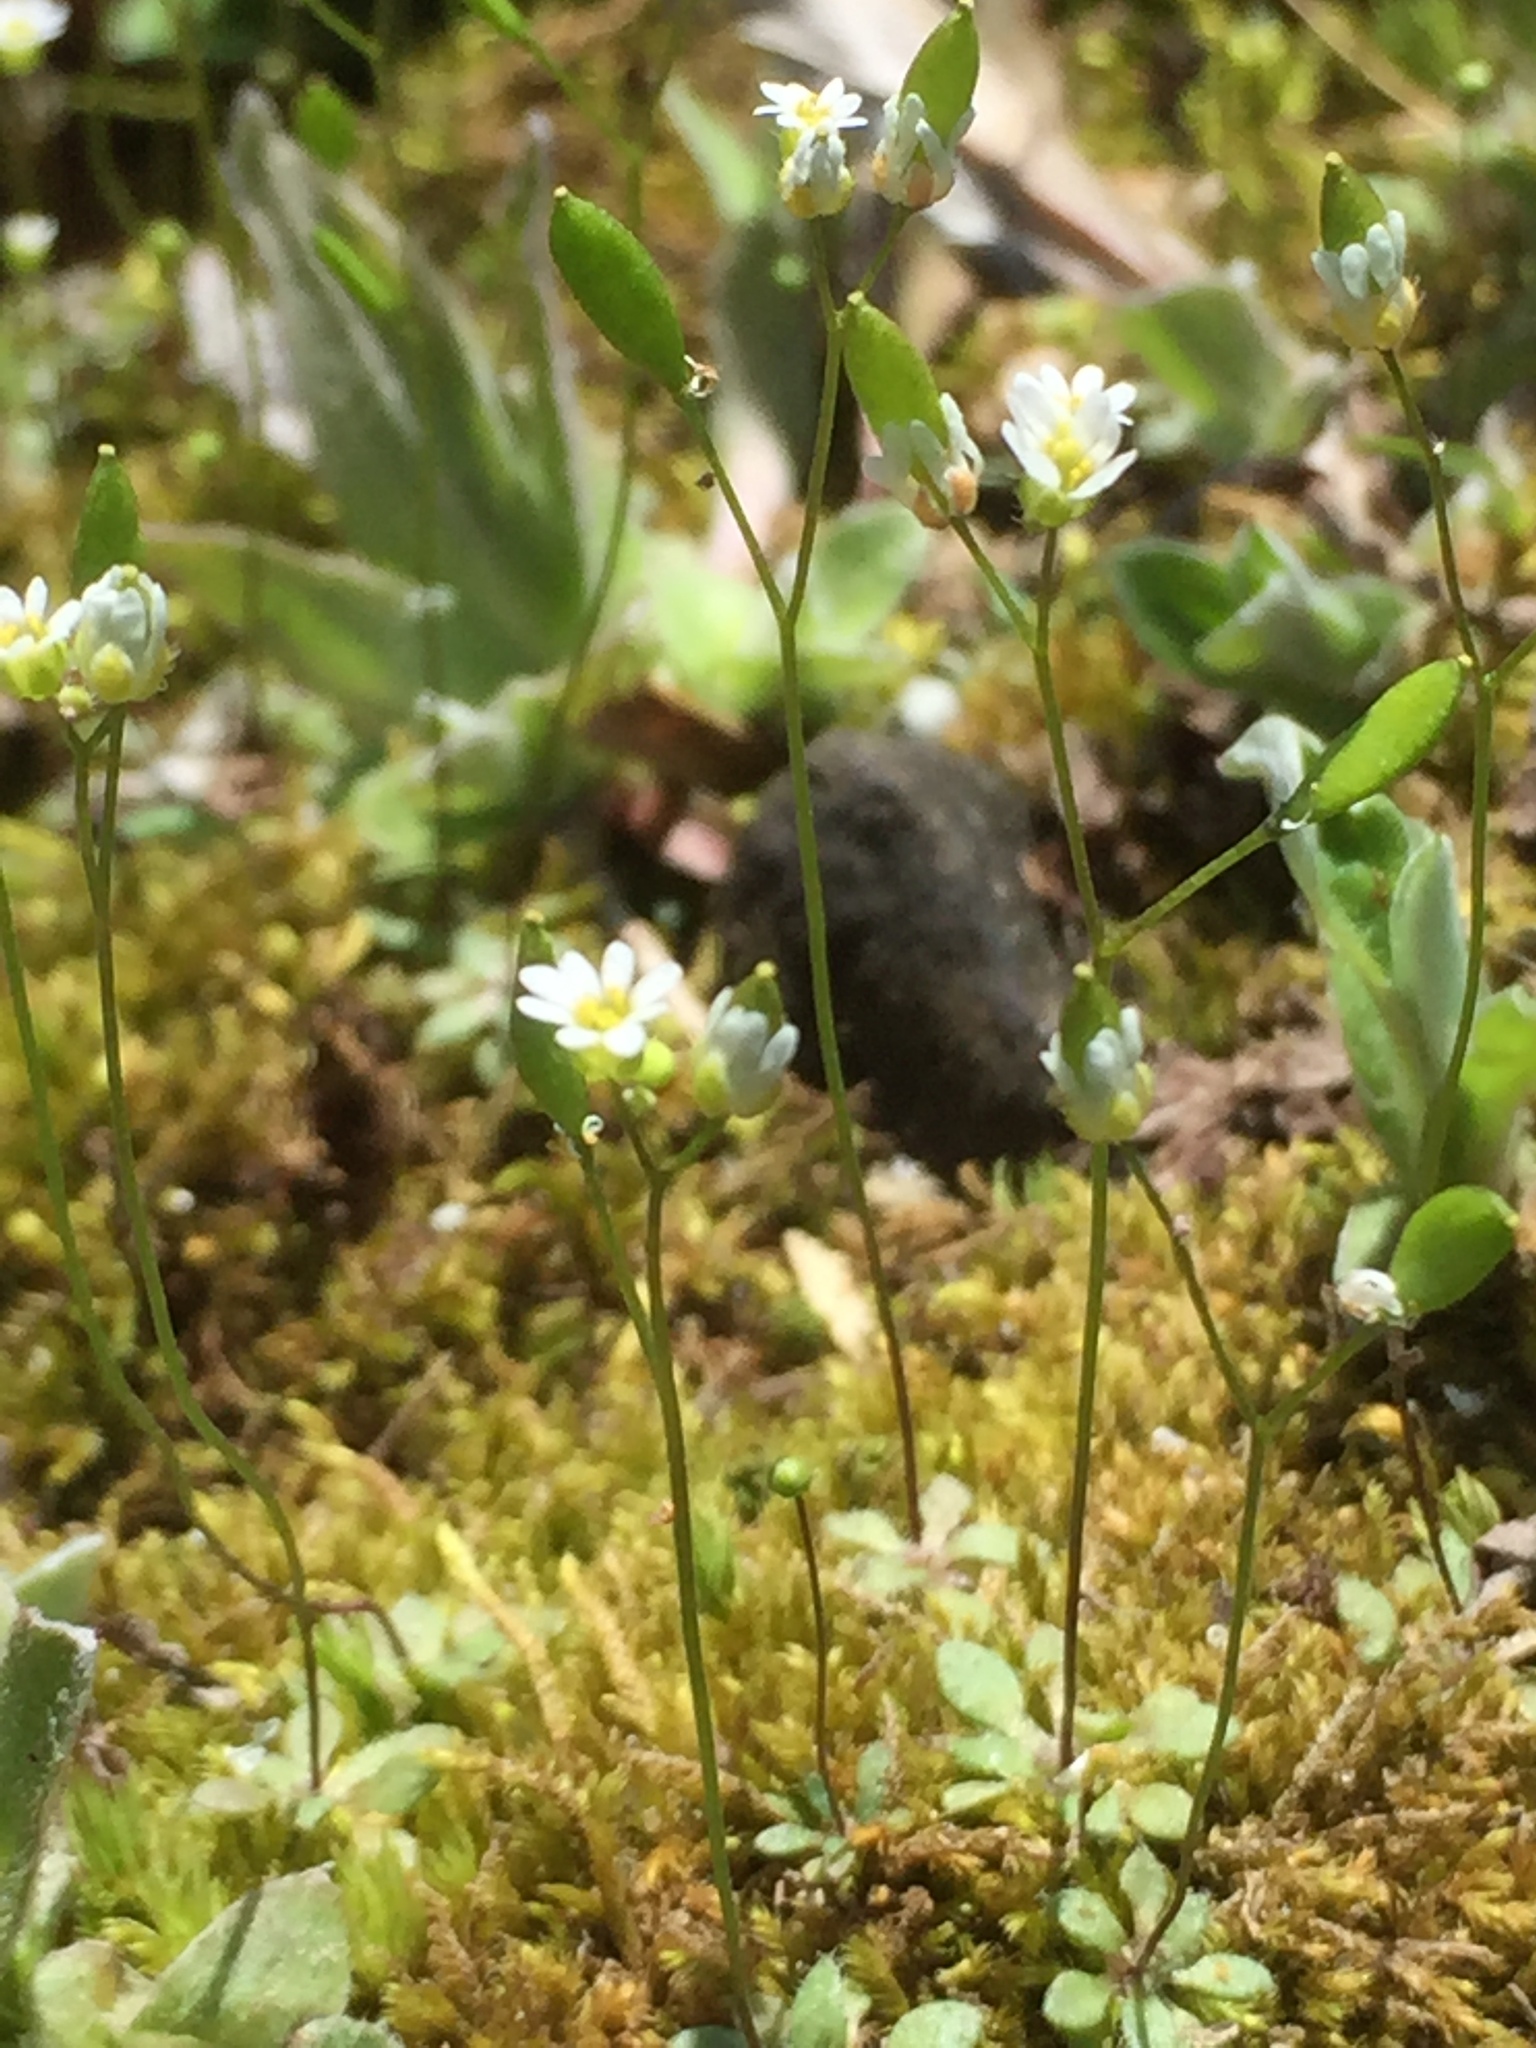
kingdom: Plantae
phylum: Tracheophyta
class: Magnoliopsida
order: Brassicales
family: Brassicaceae
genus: Draba
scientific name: Draba verna
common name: Spring draba
